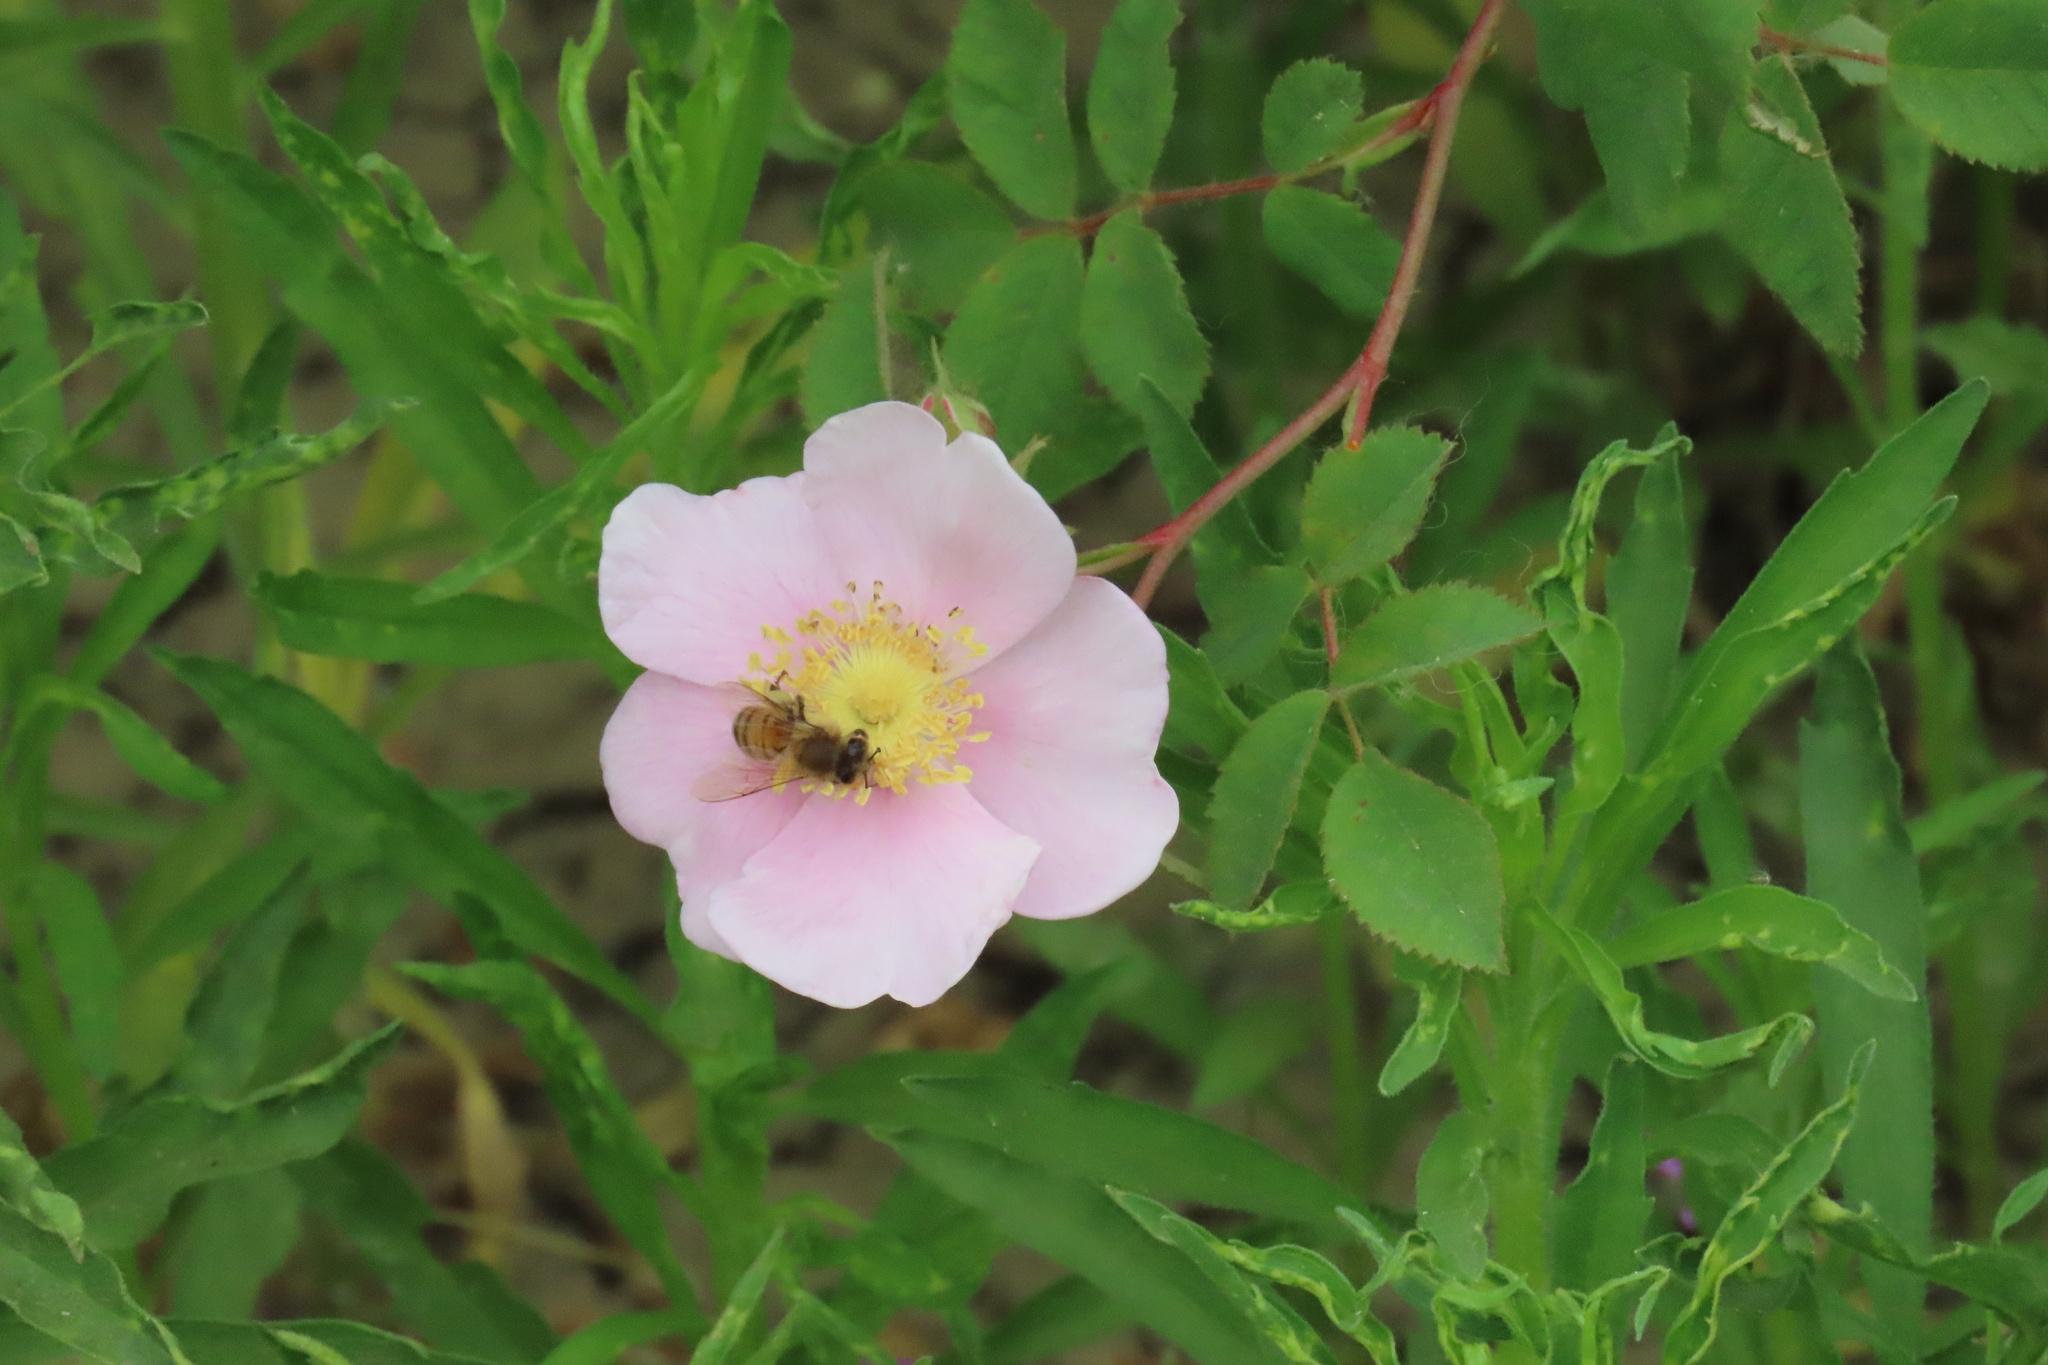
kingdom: Animalia
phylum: Arthropoda
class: Insecta
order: Hymenoptera
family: Apidae
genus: Apis
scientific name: Apis mellifera
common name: Honey bee
